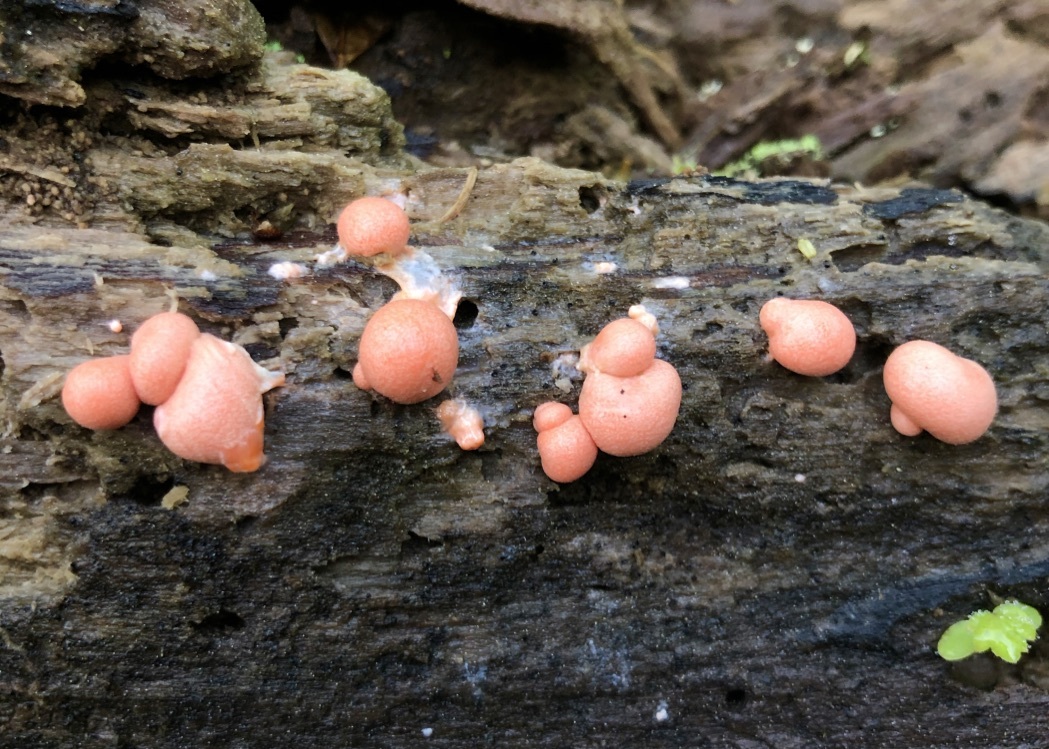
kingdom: Protozoa
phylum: Mycetozoa
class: Myxomycetes
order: Cribrariales
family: Tubiferaceae
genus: Lycogala
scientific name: Lycogala epidendrum
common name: Wolf's milk
